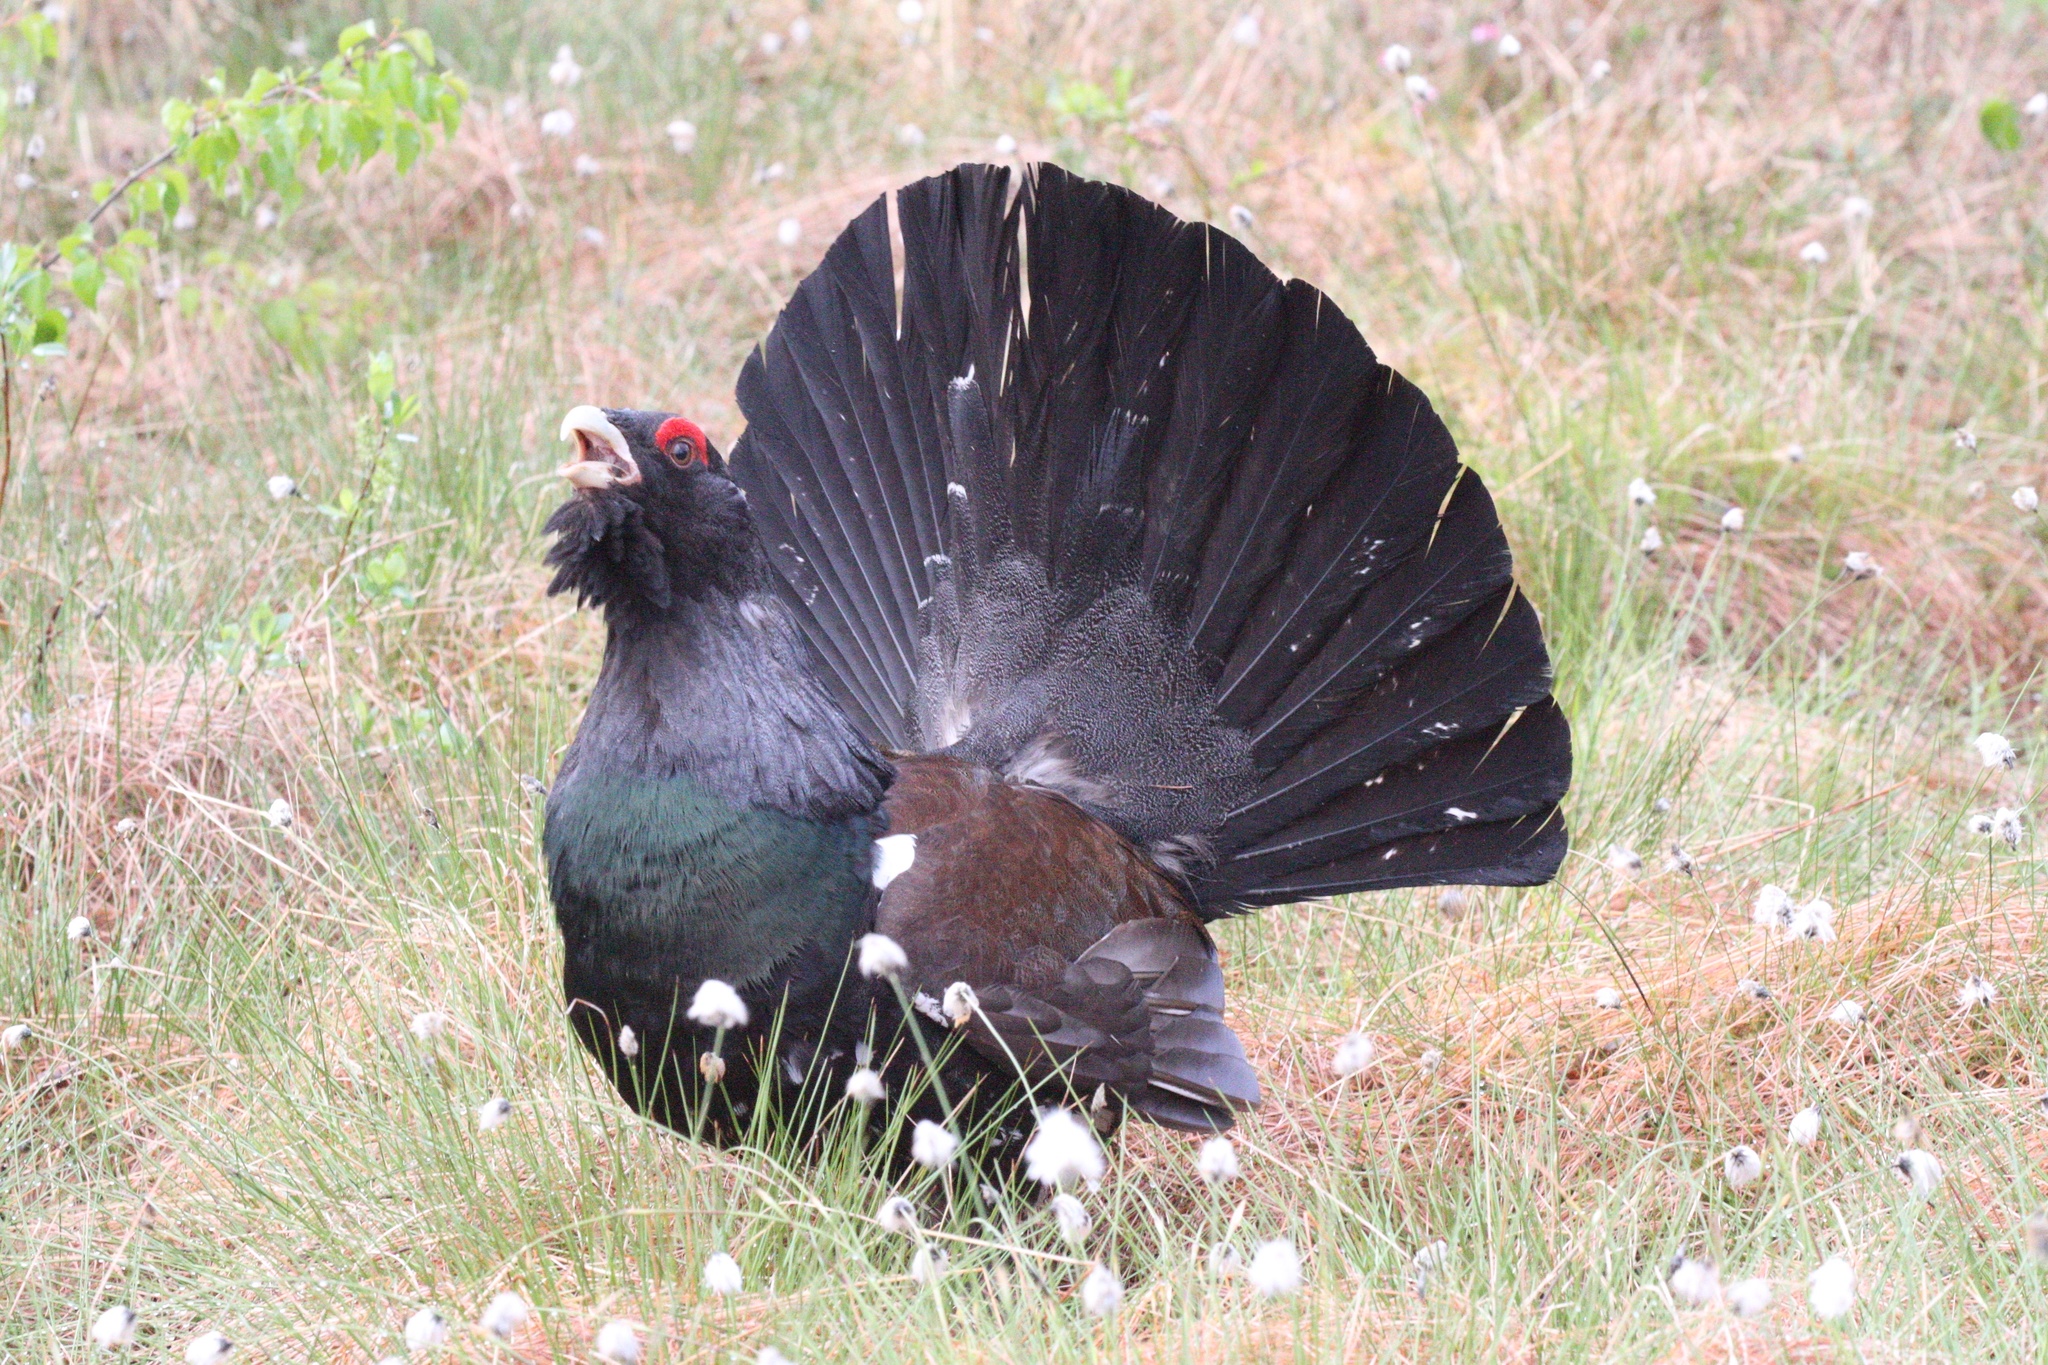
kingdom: Animalia
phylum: Chordata
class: Aves
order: Galliformes
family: Phasianidae
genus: Tetrao
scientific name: Tetrao urogallus
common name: Western capercaillie
